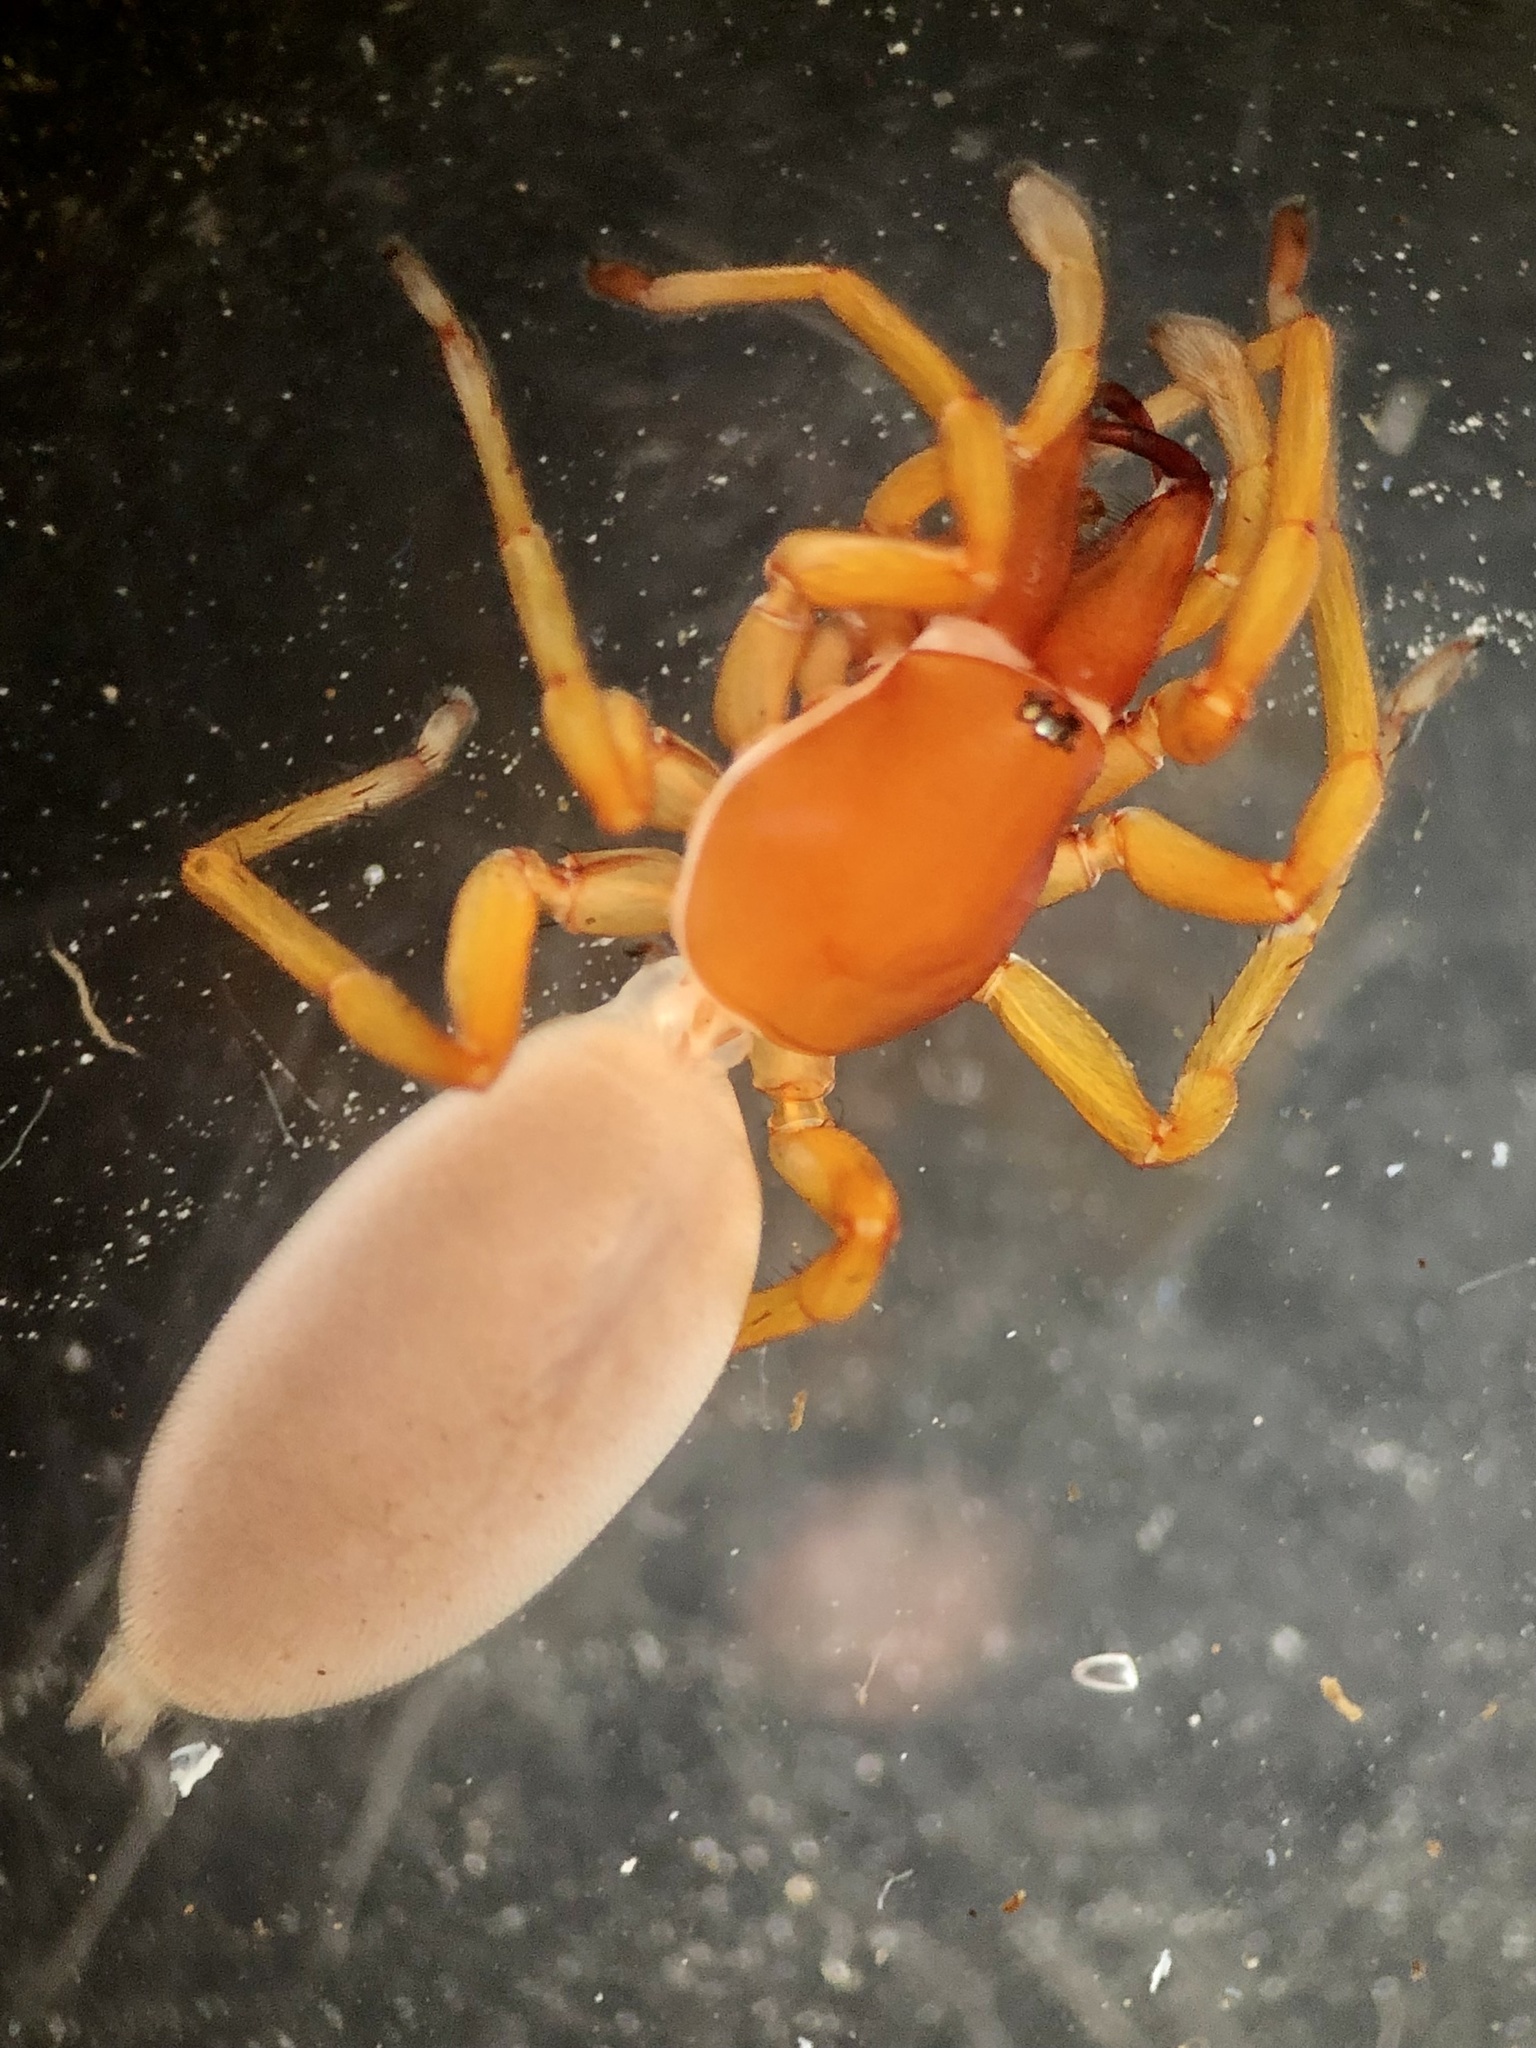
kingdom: Animalia
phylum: Arthropoda
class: Arachnida
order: Araneae
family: Dysderidae
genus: Dysdera
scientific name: Dysdera crocata
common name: Woodlouse spider
